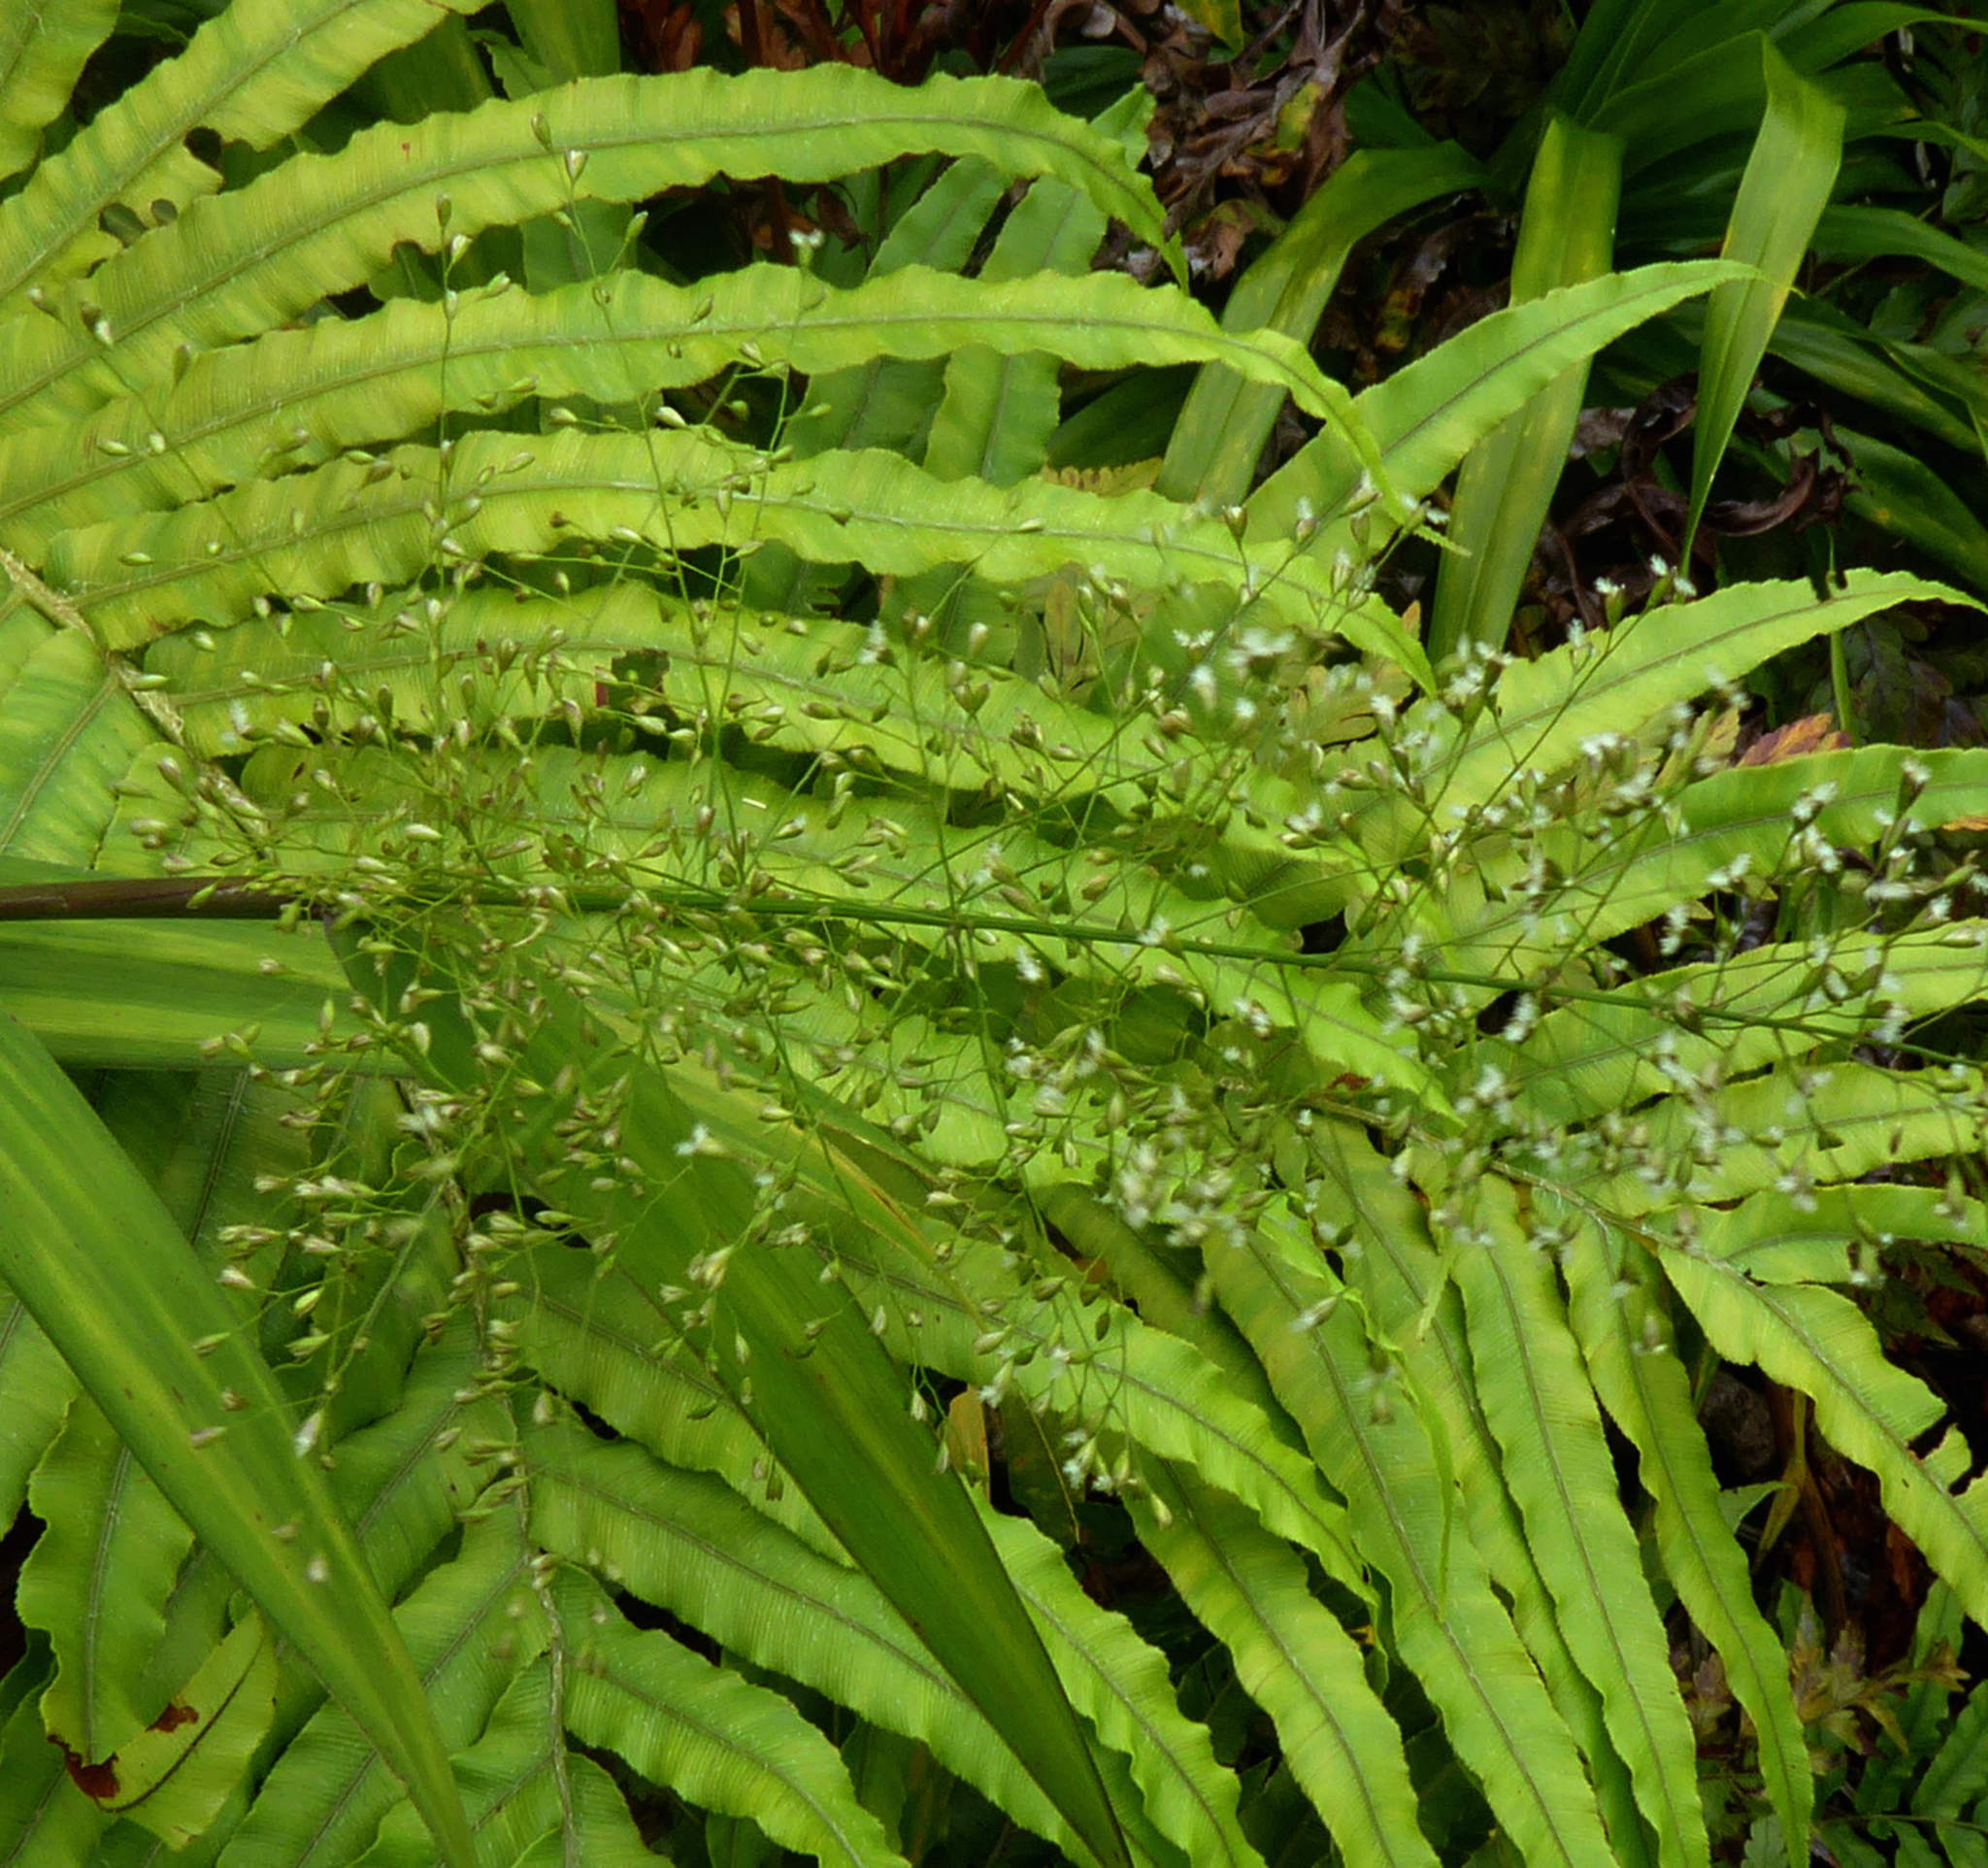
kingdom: Plantae
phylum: Tracheophyta
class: Liliopsida
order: Poales
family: Poaceae
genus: Isachne
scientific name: Isachne distichophylla
